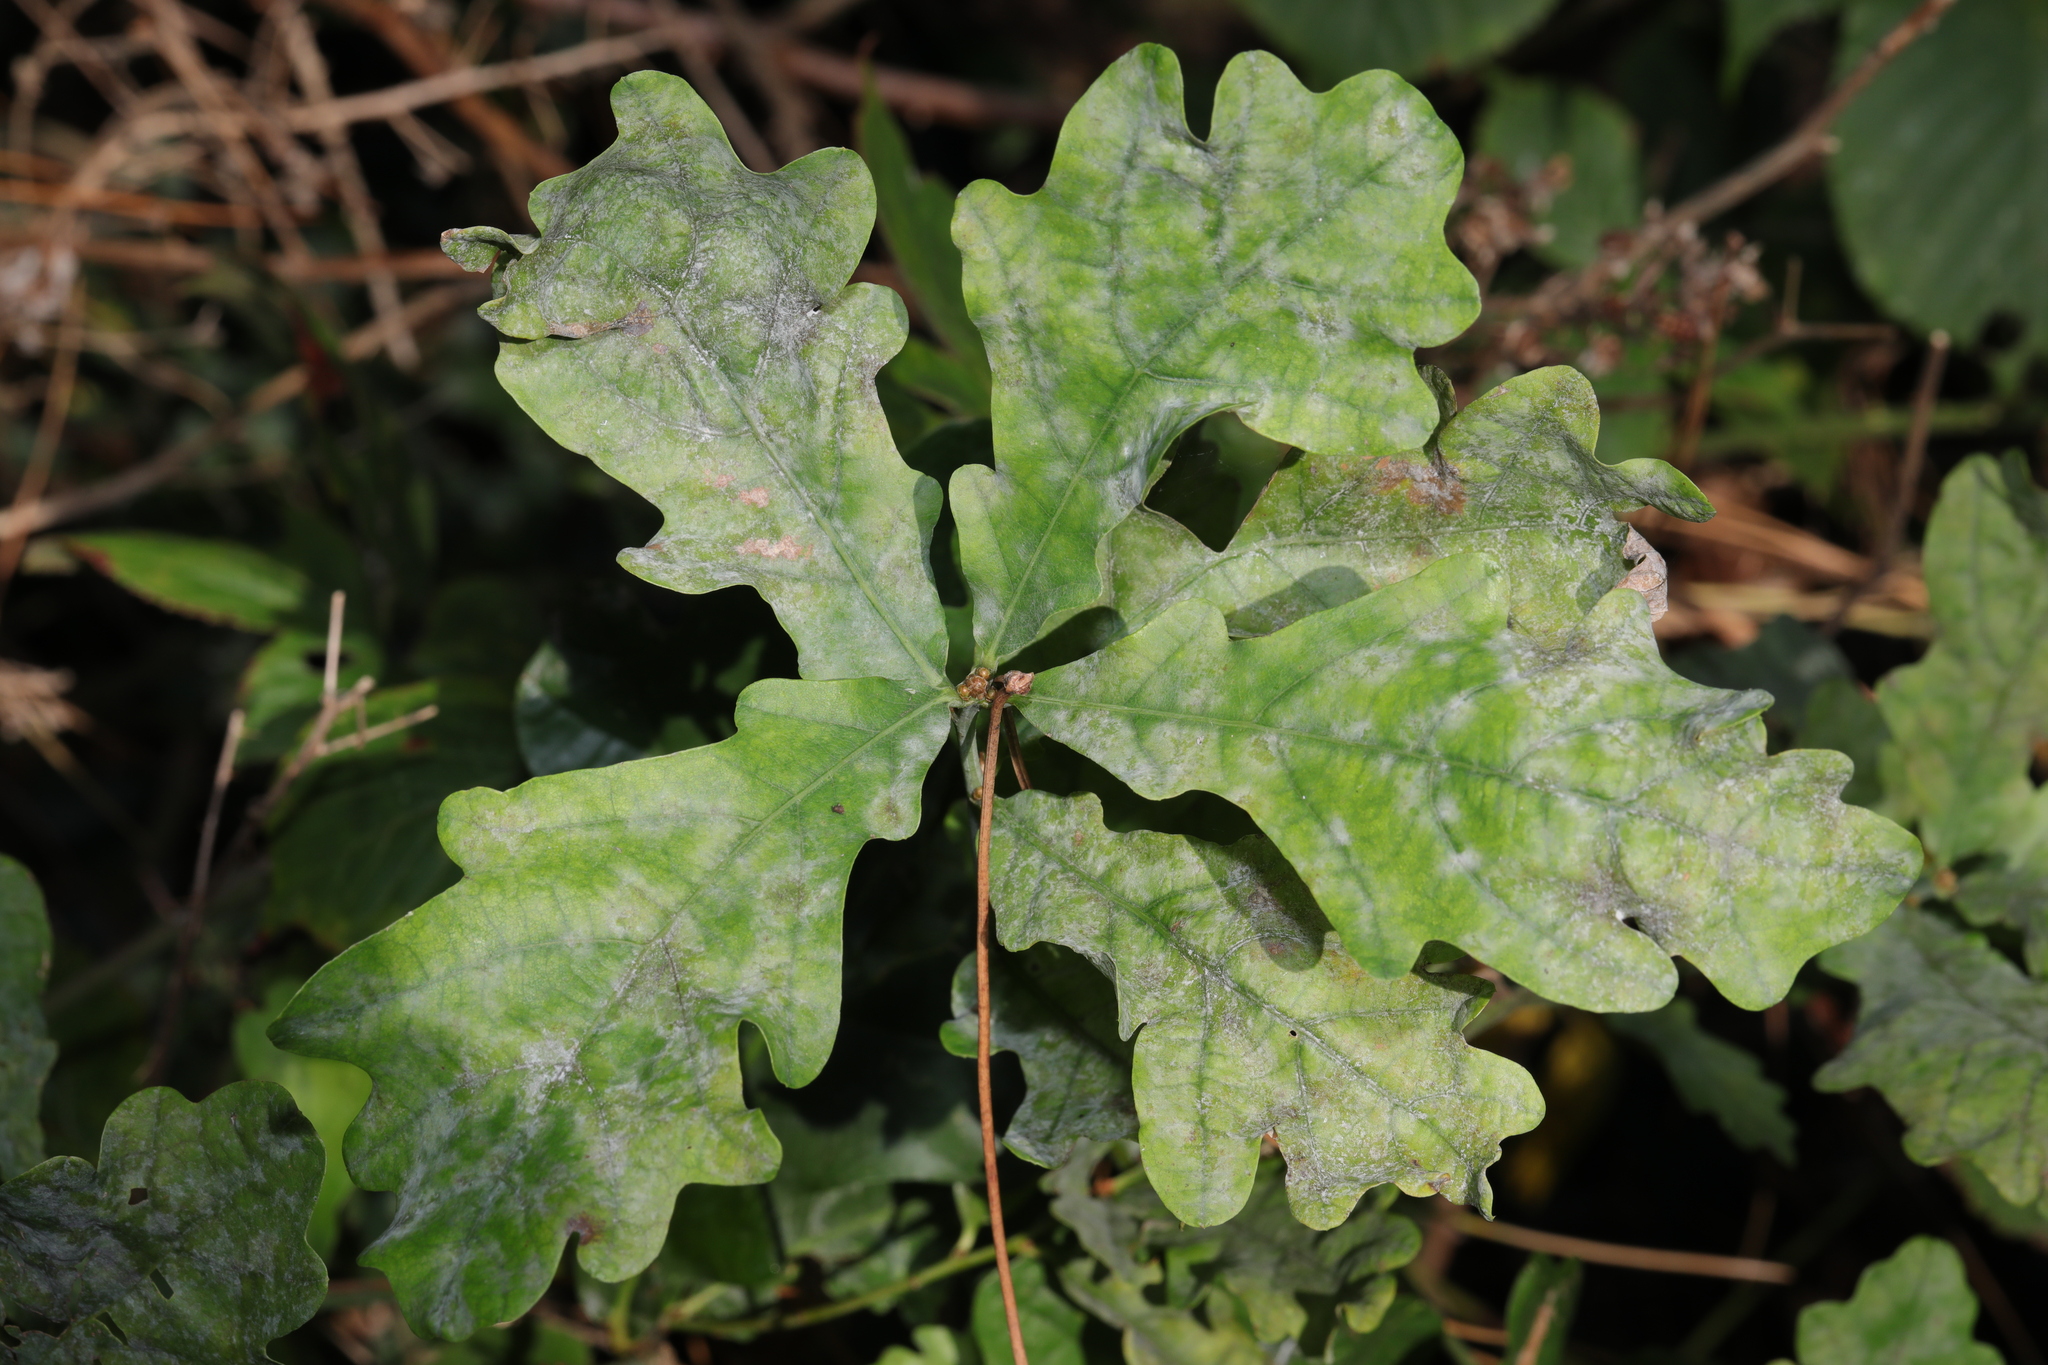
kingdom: Fungi
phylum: Ascomycota
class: Leotiomycetes
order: Helotiales
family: Erysiphaceae
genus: Erysiphe
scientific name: Erysiphe alphitoides
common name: Oak mildew
